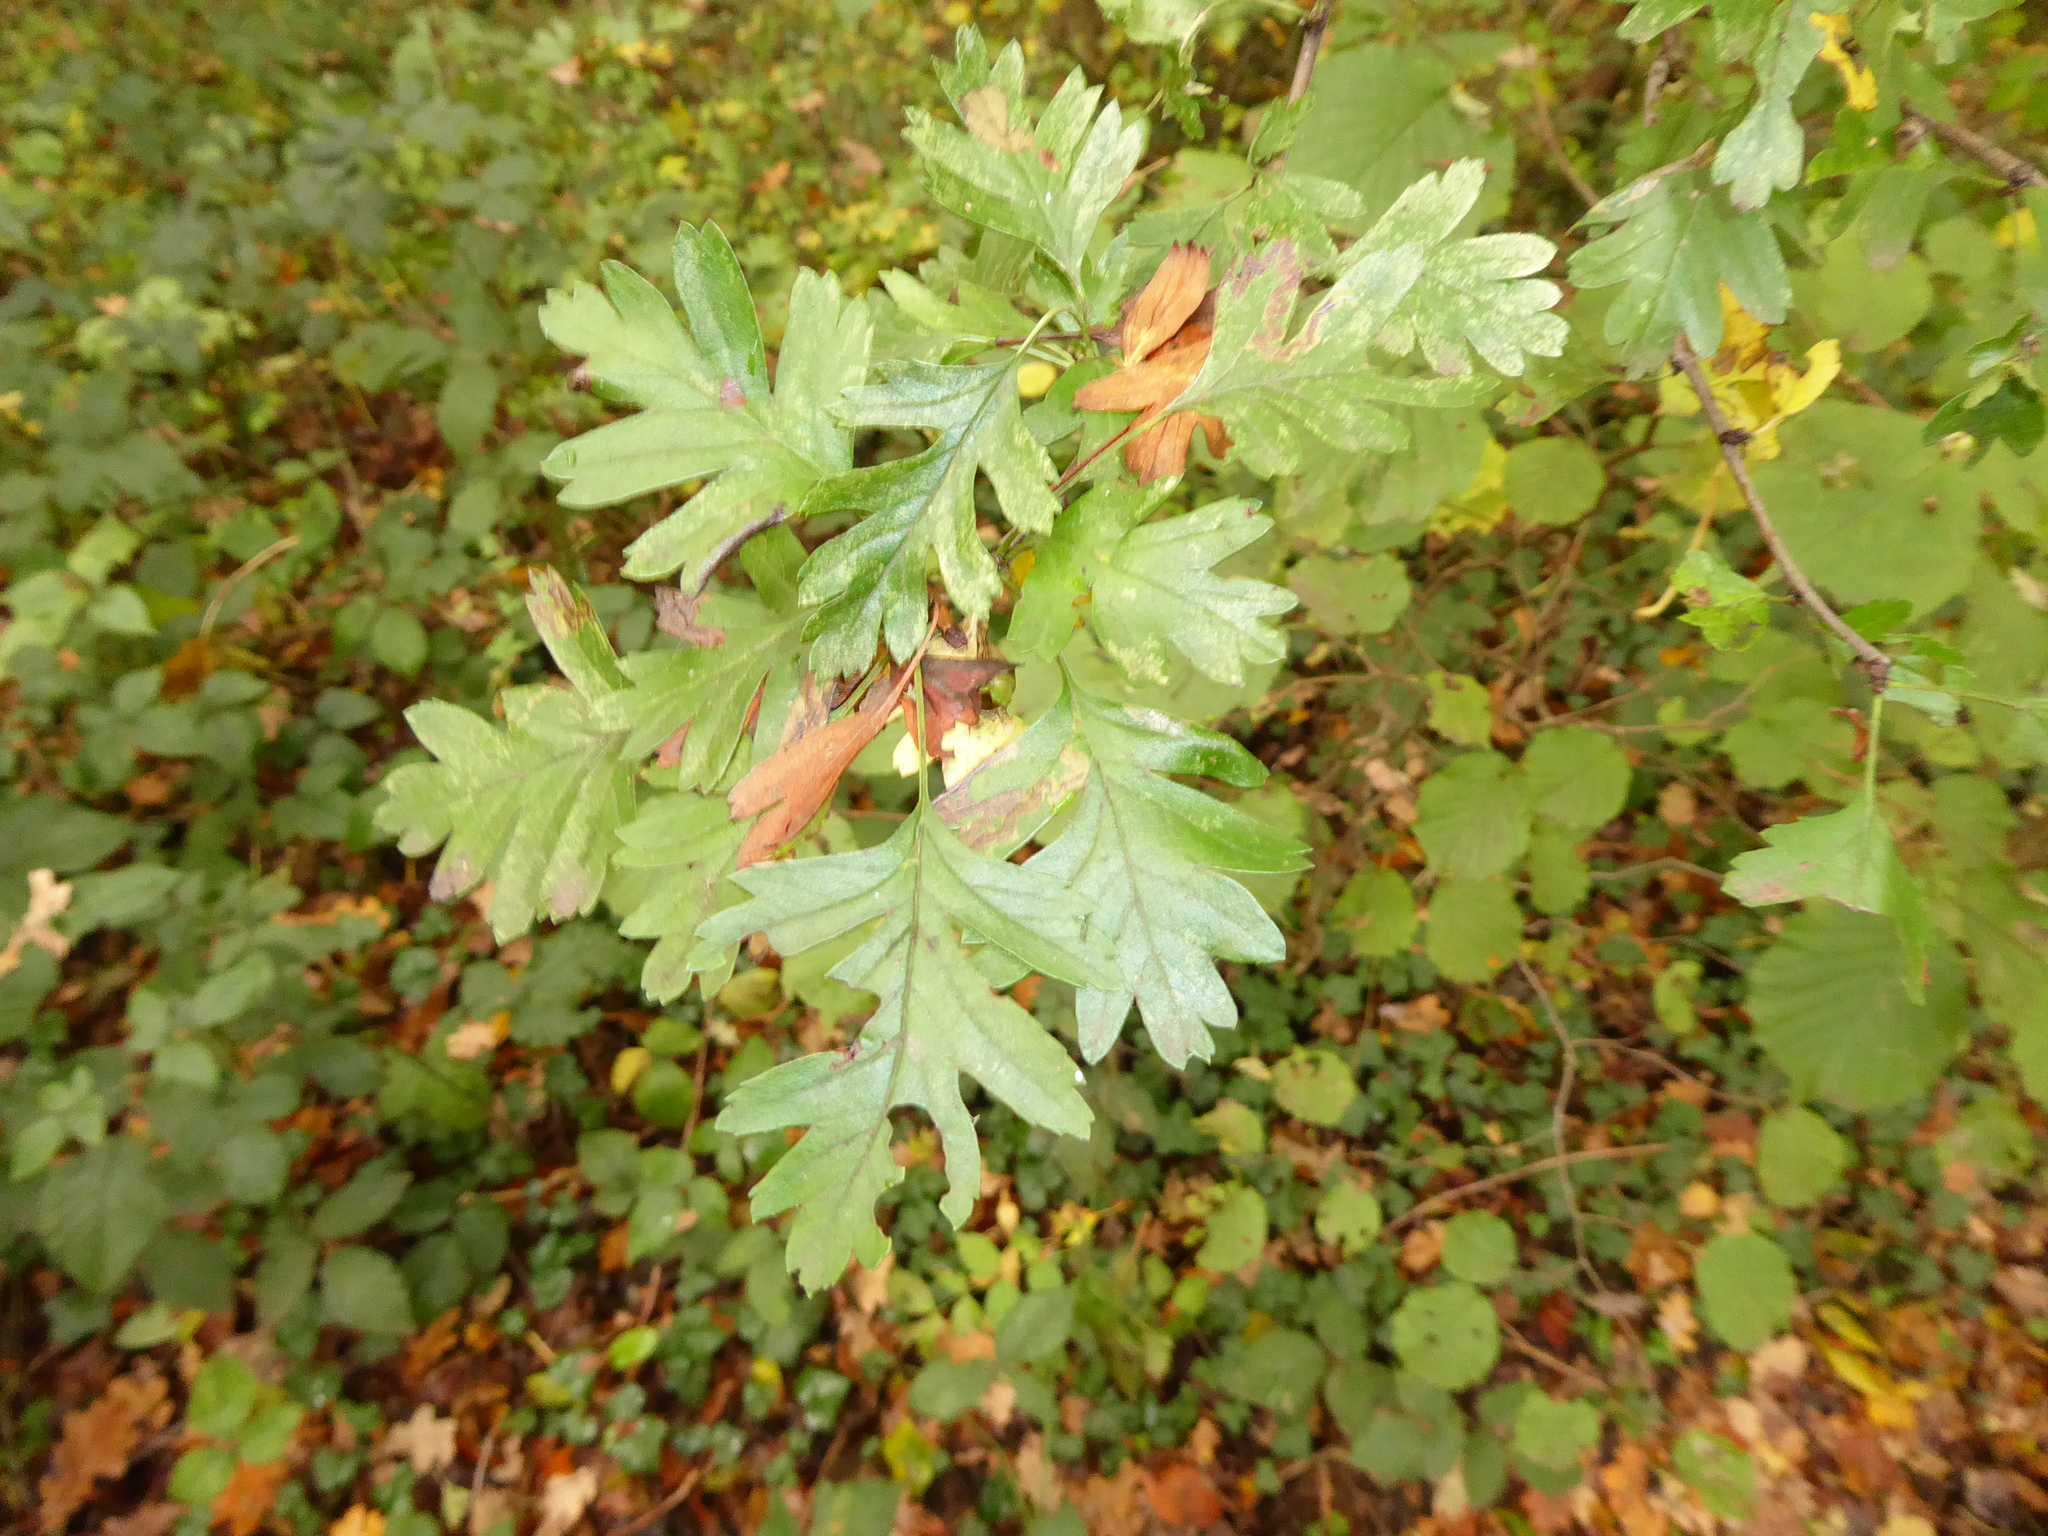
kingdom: Plantae
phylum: Tracheophyta
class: Magnoliopsida
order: Rosales
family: Rosaceae
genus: Crataegus
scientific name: Crataegus monogyna
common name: Hawthorn
